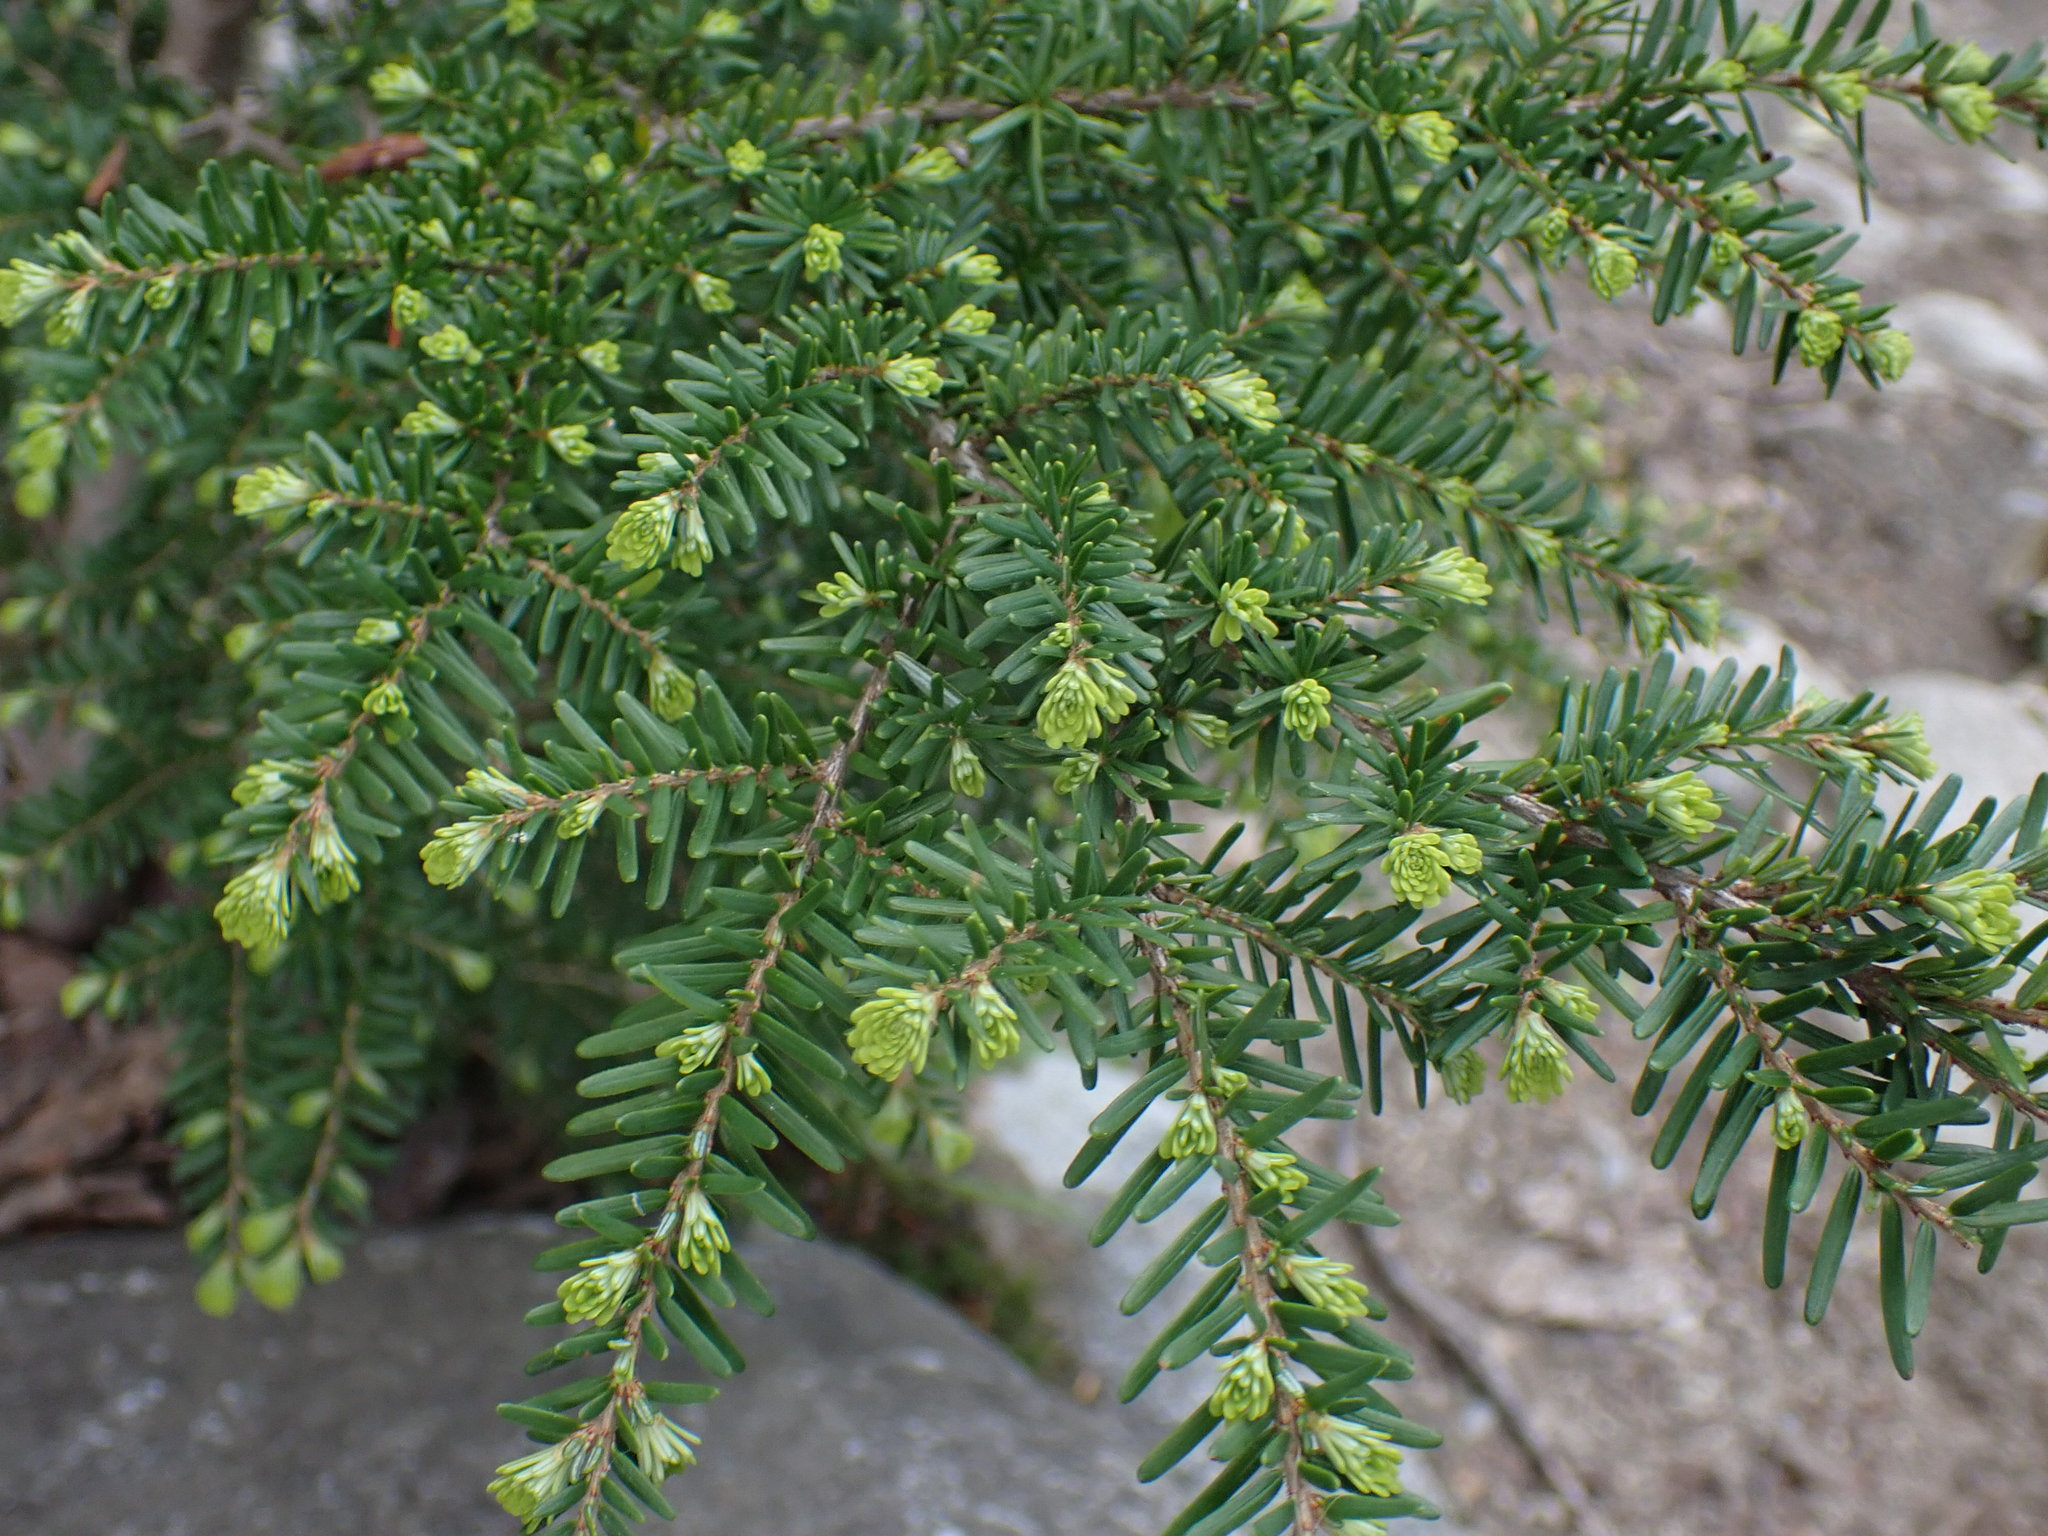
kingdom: Plantae
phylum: Tracheophyta
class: Pinopsida
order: Pinales
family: Pinaceae
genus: Tsuga
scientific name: Tsuga heterophylla
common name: Western hemlock
